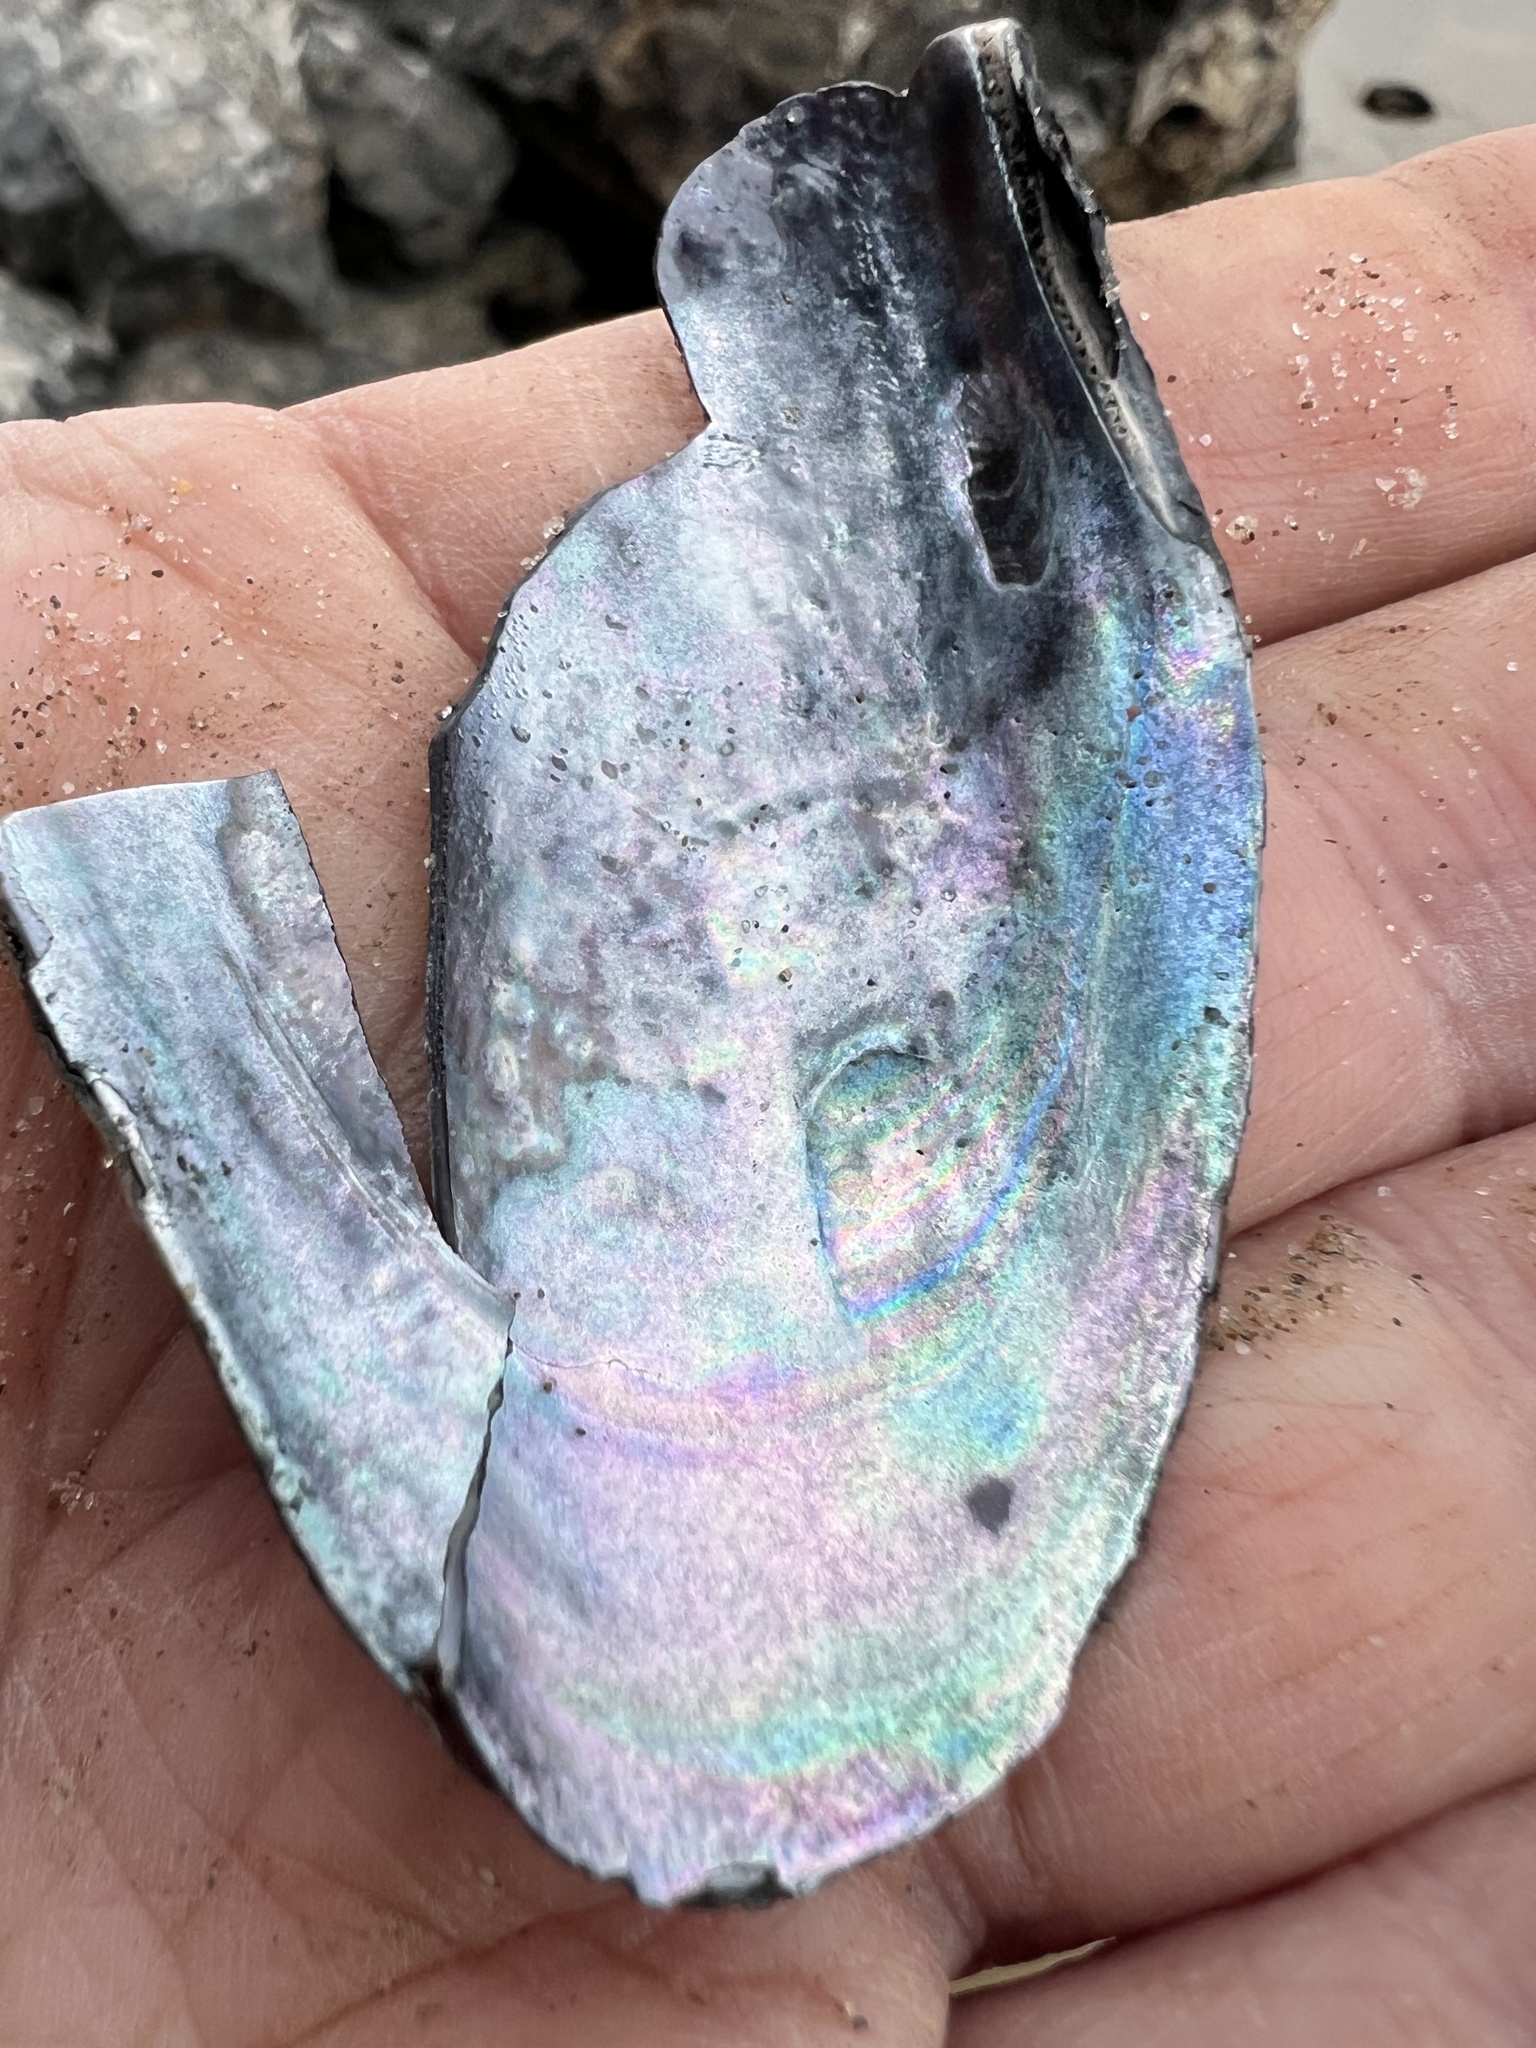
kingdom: Animalia
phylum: Mollusca
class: Bivalvia
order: Mytilida
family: Mytilidae
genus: Perna
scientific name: Perna canaliculus
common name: New zealand greenshelltm
